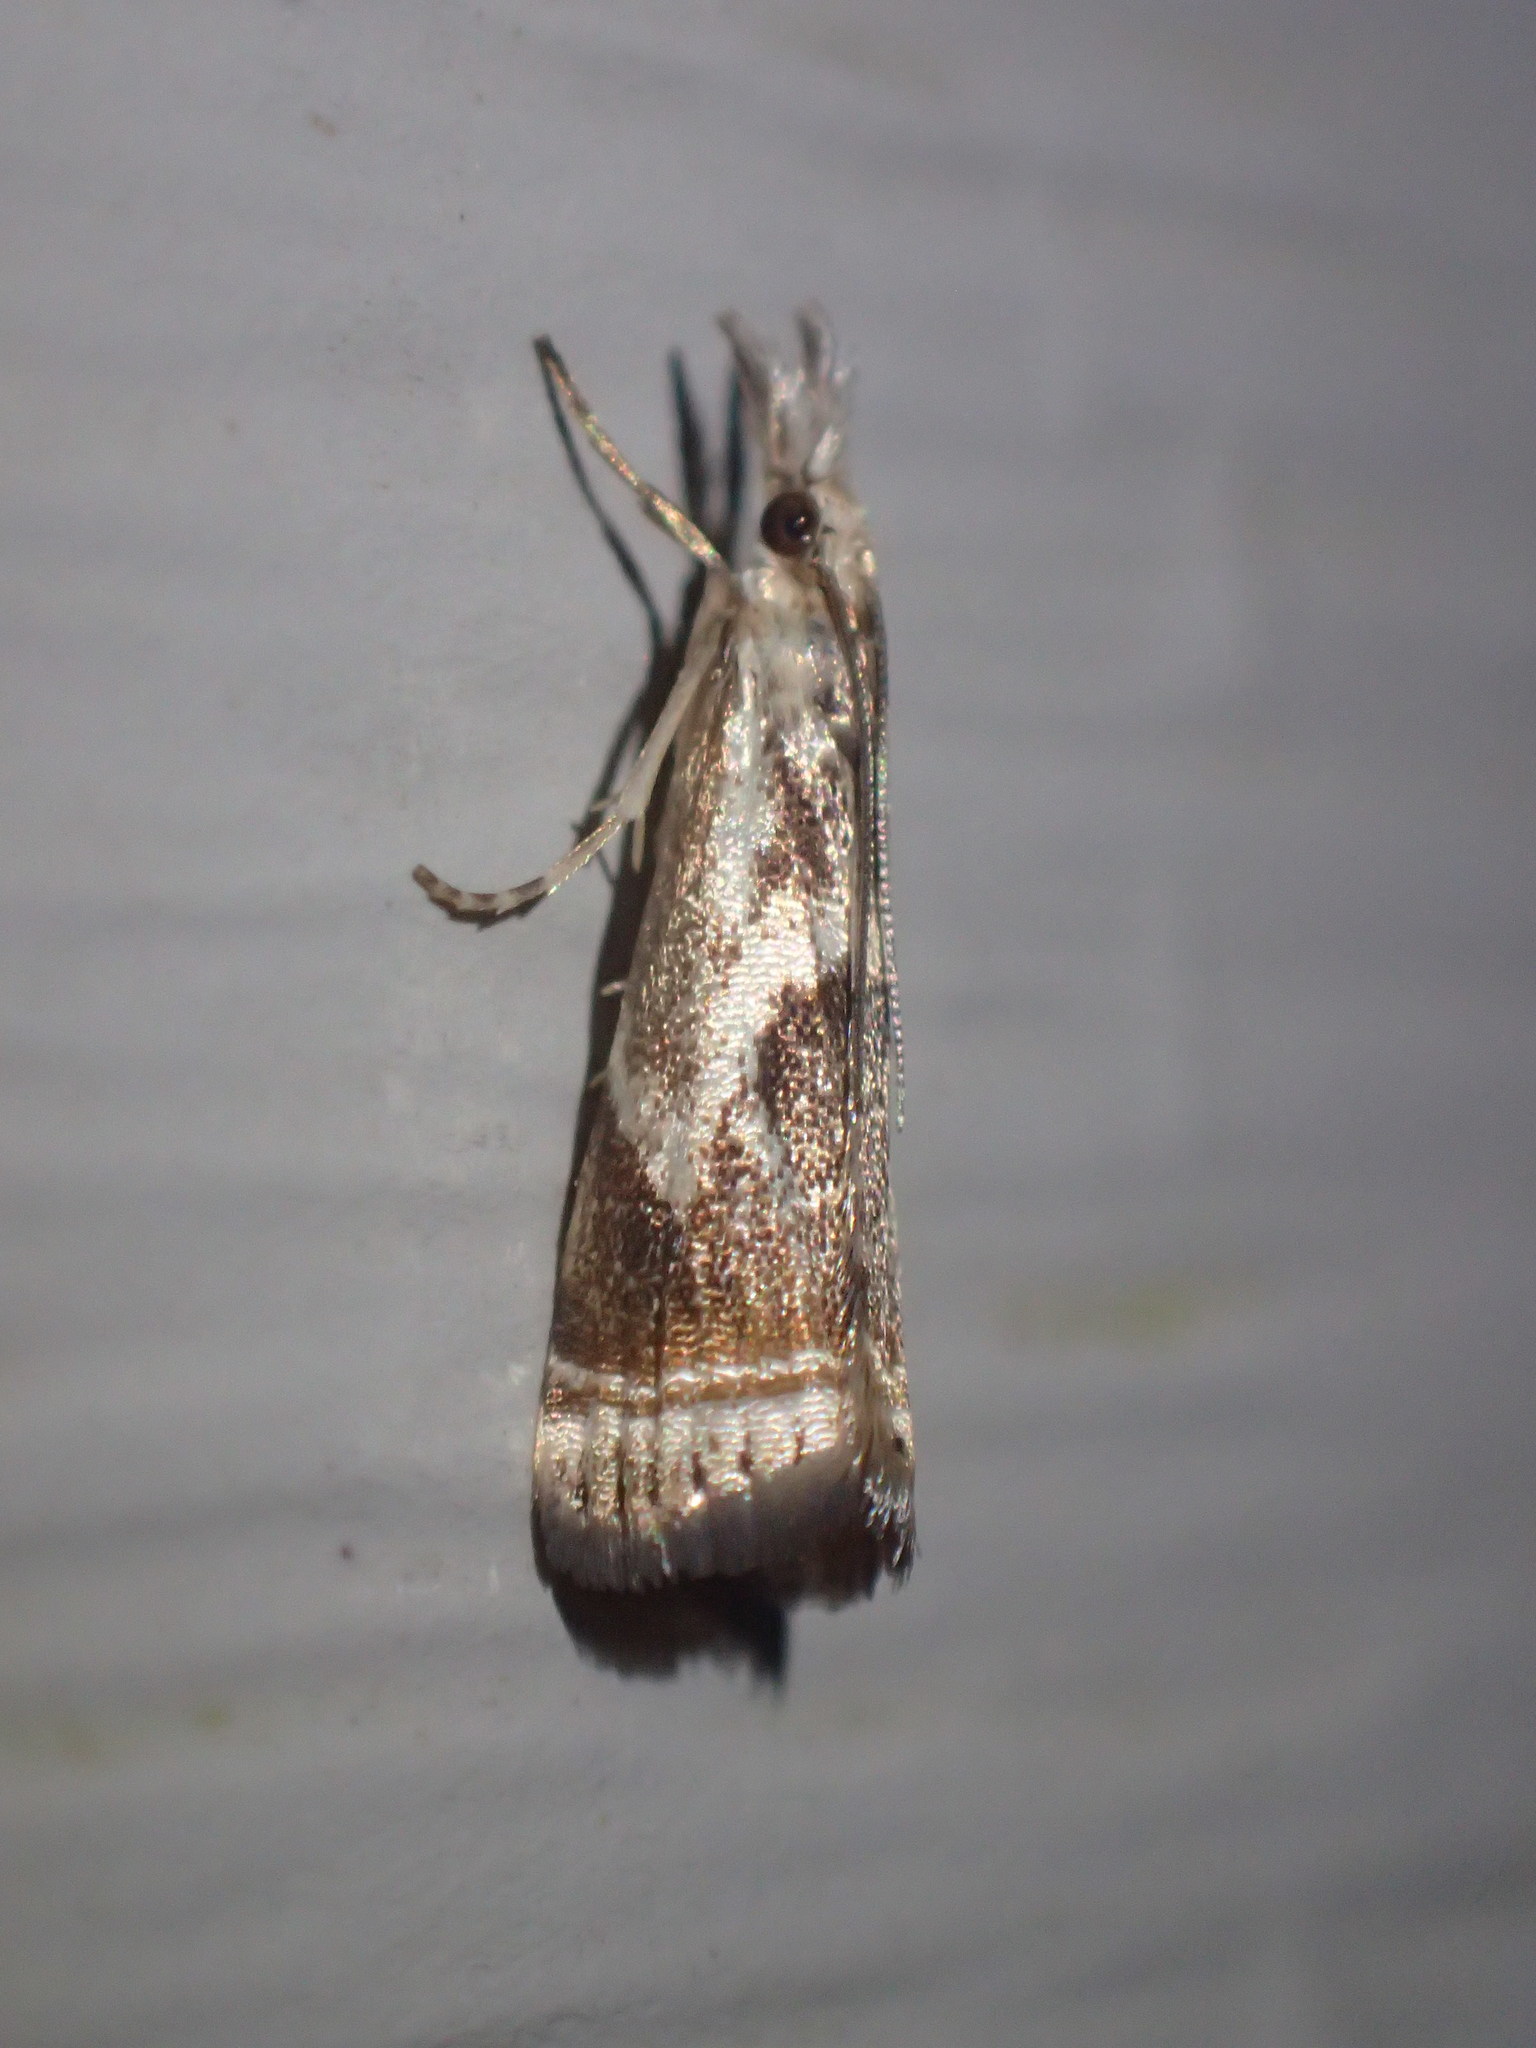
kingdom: Animalia
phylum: Arthropoda
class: Insecta
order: Lepidoptera
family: Crambidae
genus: Microcrambus
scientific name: Microcrambus elegans
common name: Elegant grass-veneer
